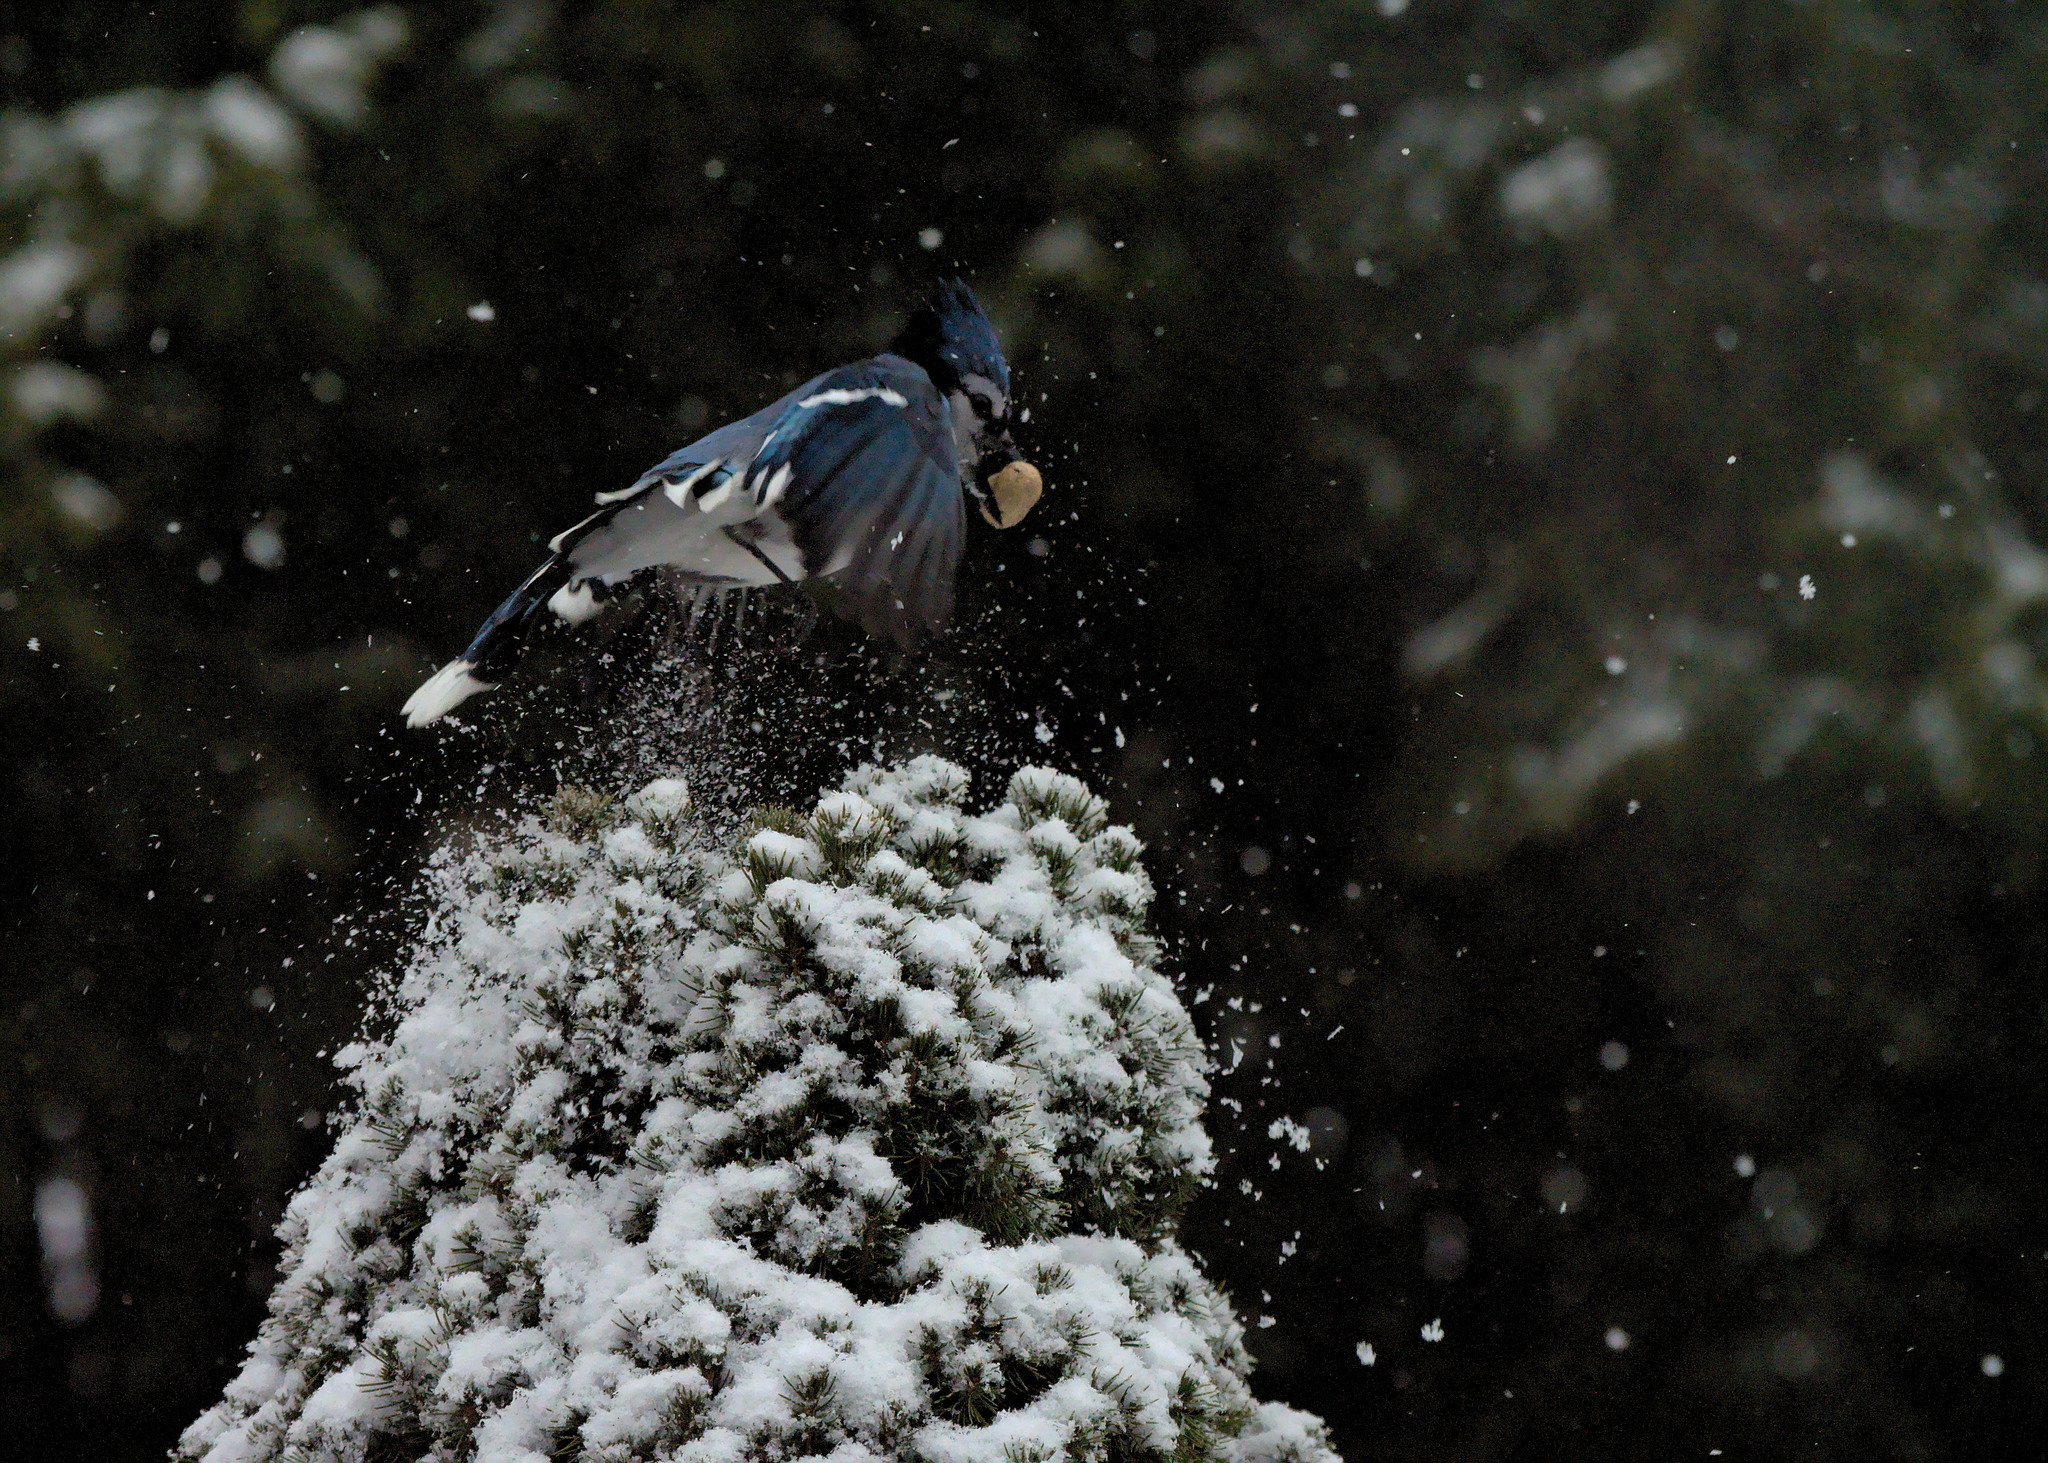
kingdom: Animalia
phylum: Chordata
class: Aves
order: Passeriformes
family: Corvidae
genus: Cyanocitta
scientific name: Cyanocitta cristata
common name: Blue jay
